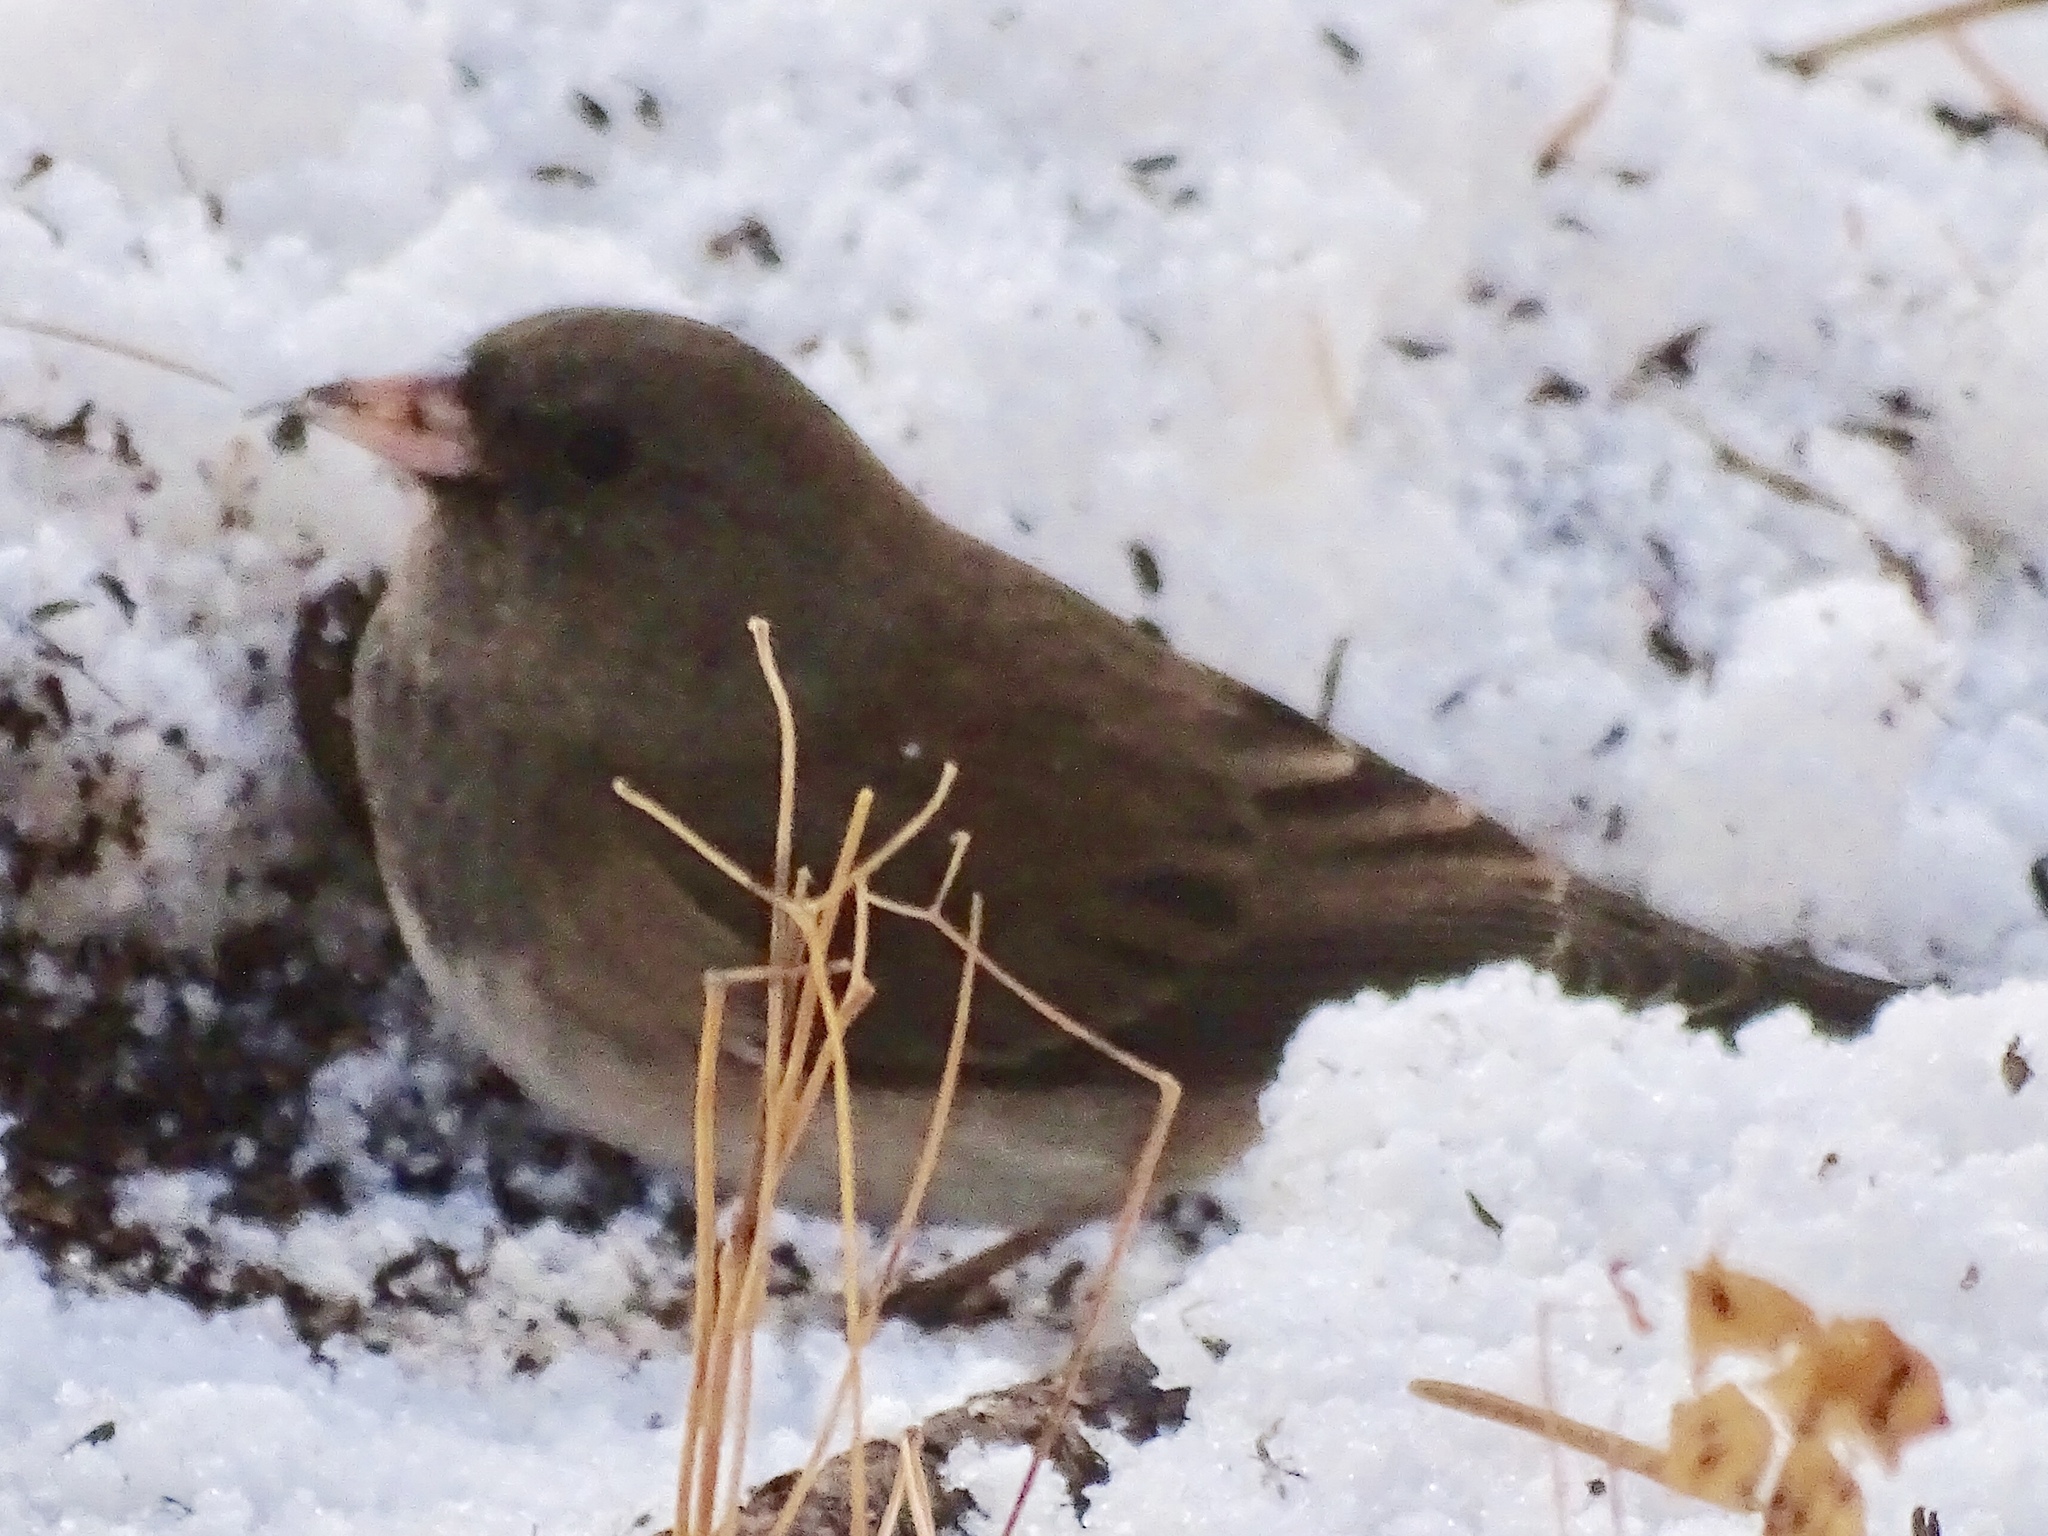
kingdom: Animalia
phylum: Chordata
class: Aves
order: Passeriformes
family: Passerellidae
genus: Junco
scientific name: Junco hyemalis
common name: Dark-eyed junco
